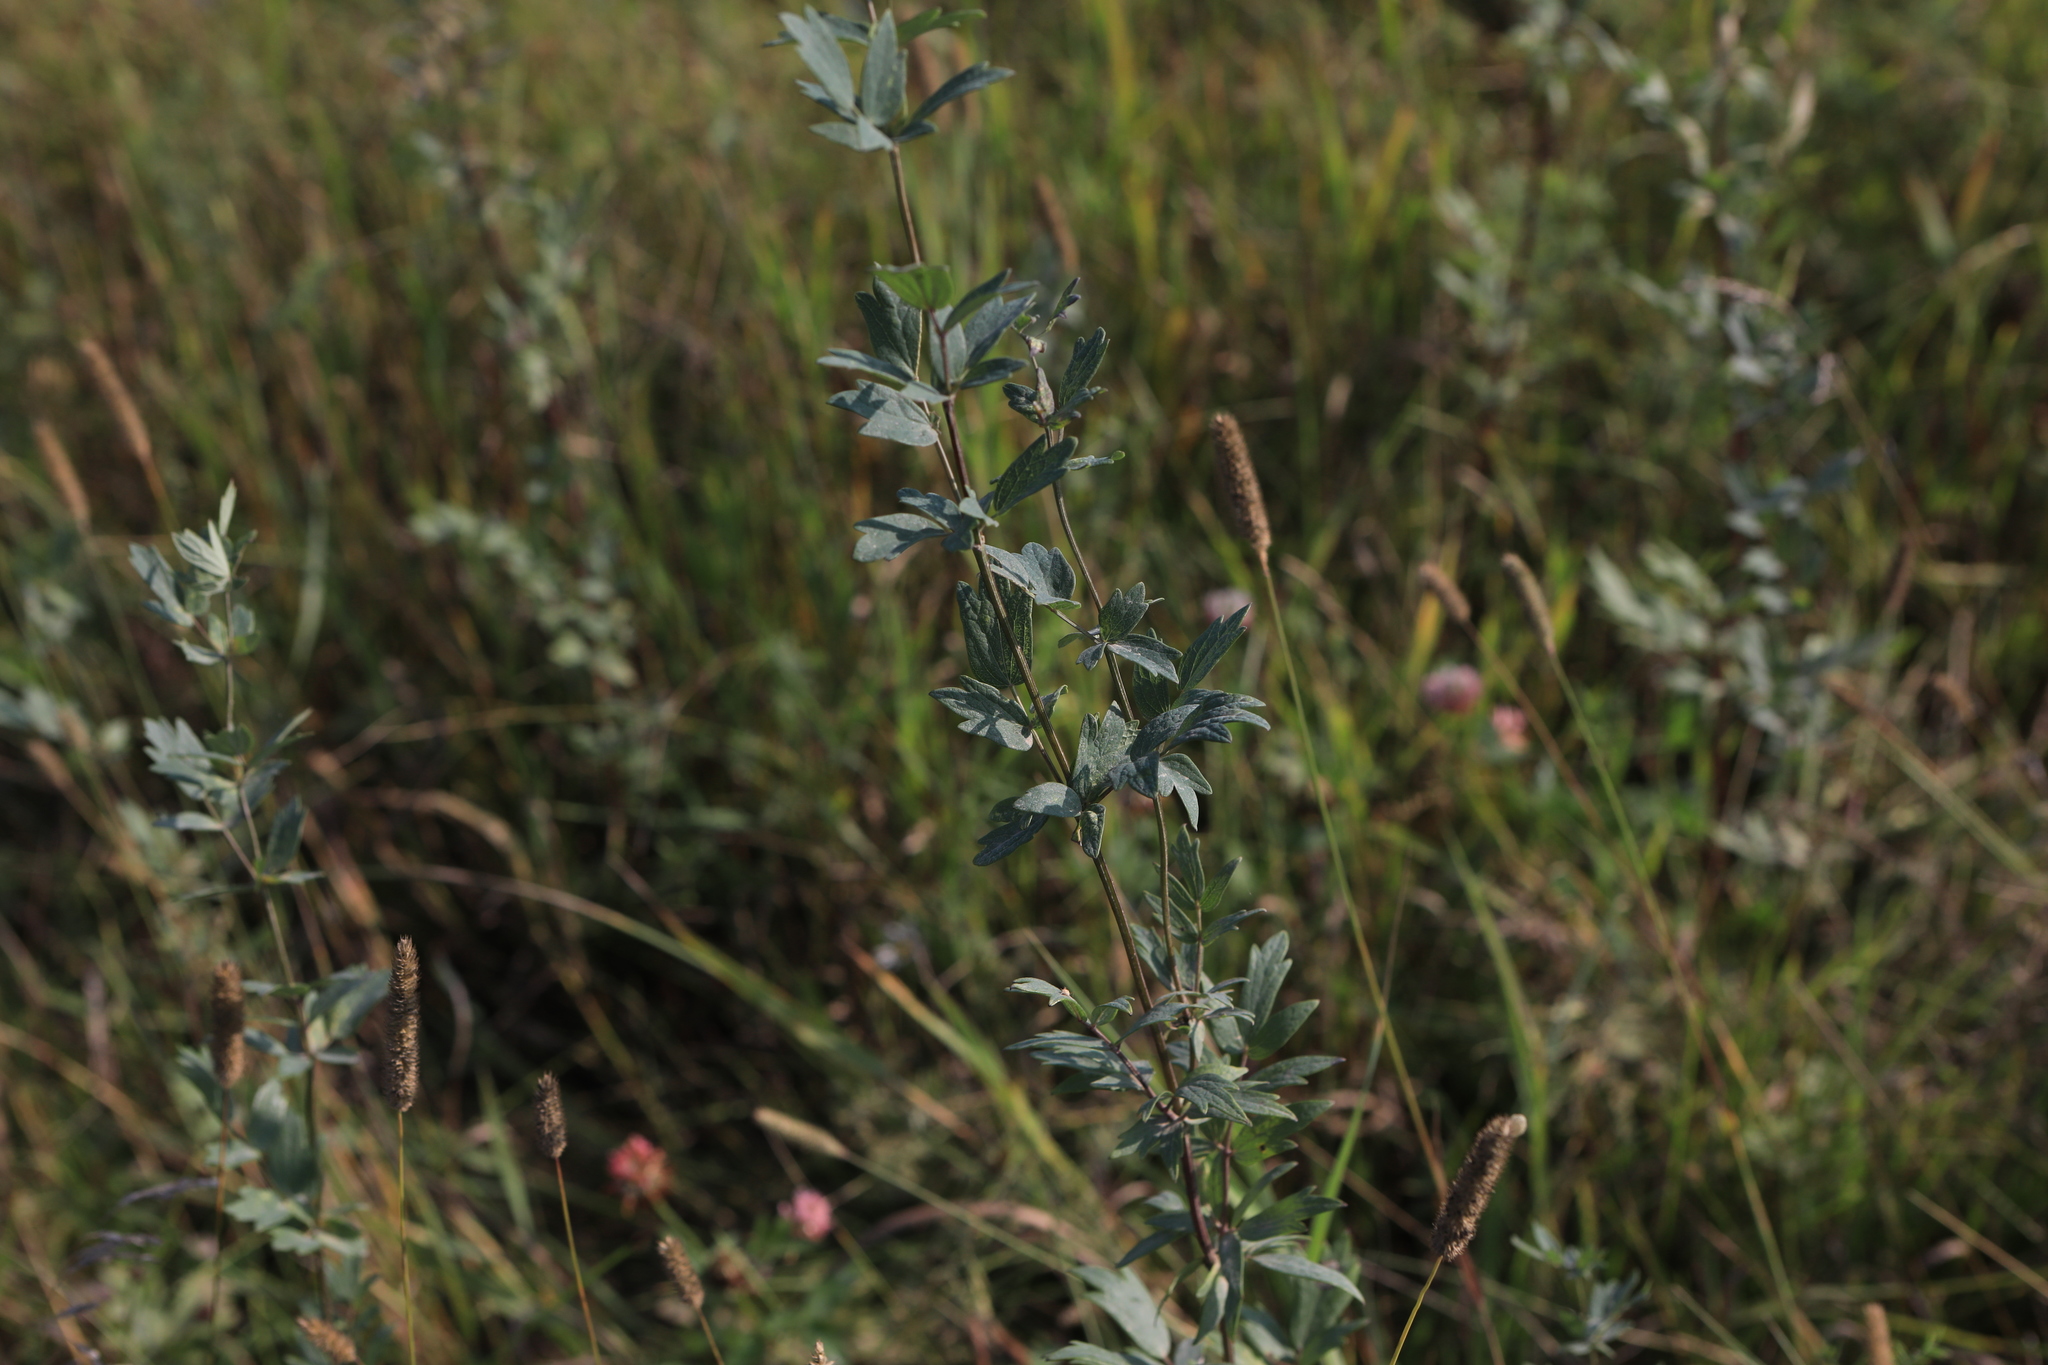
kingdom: Plantae
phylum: Tracheophyta
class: Magnoliopsida
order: Ranunculales
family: Ranunculaceae
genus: Thalictrum
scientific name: Thalictrum simplex
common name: Small meadow-rue
